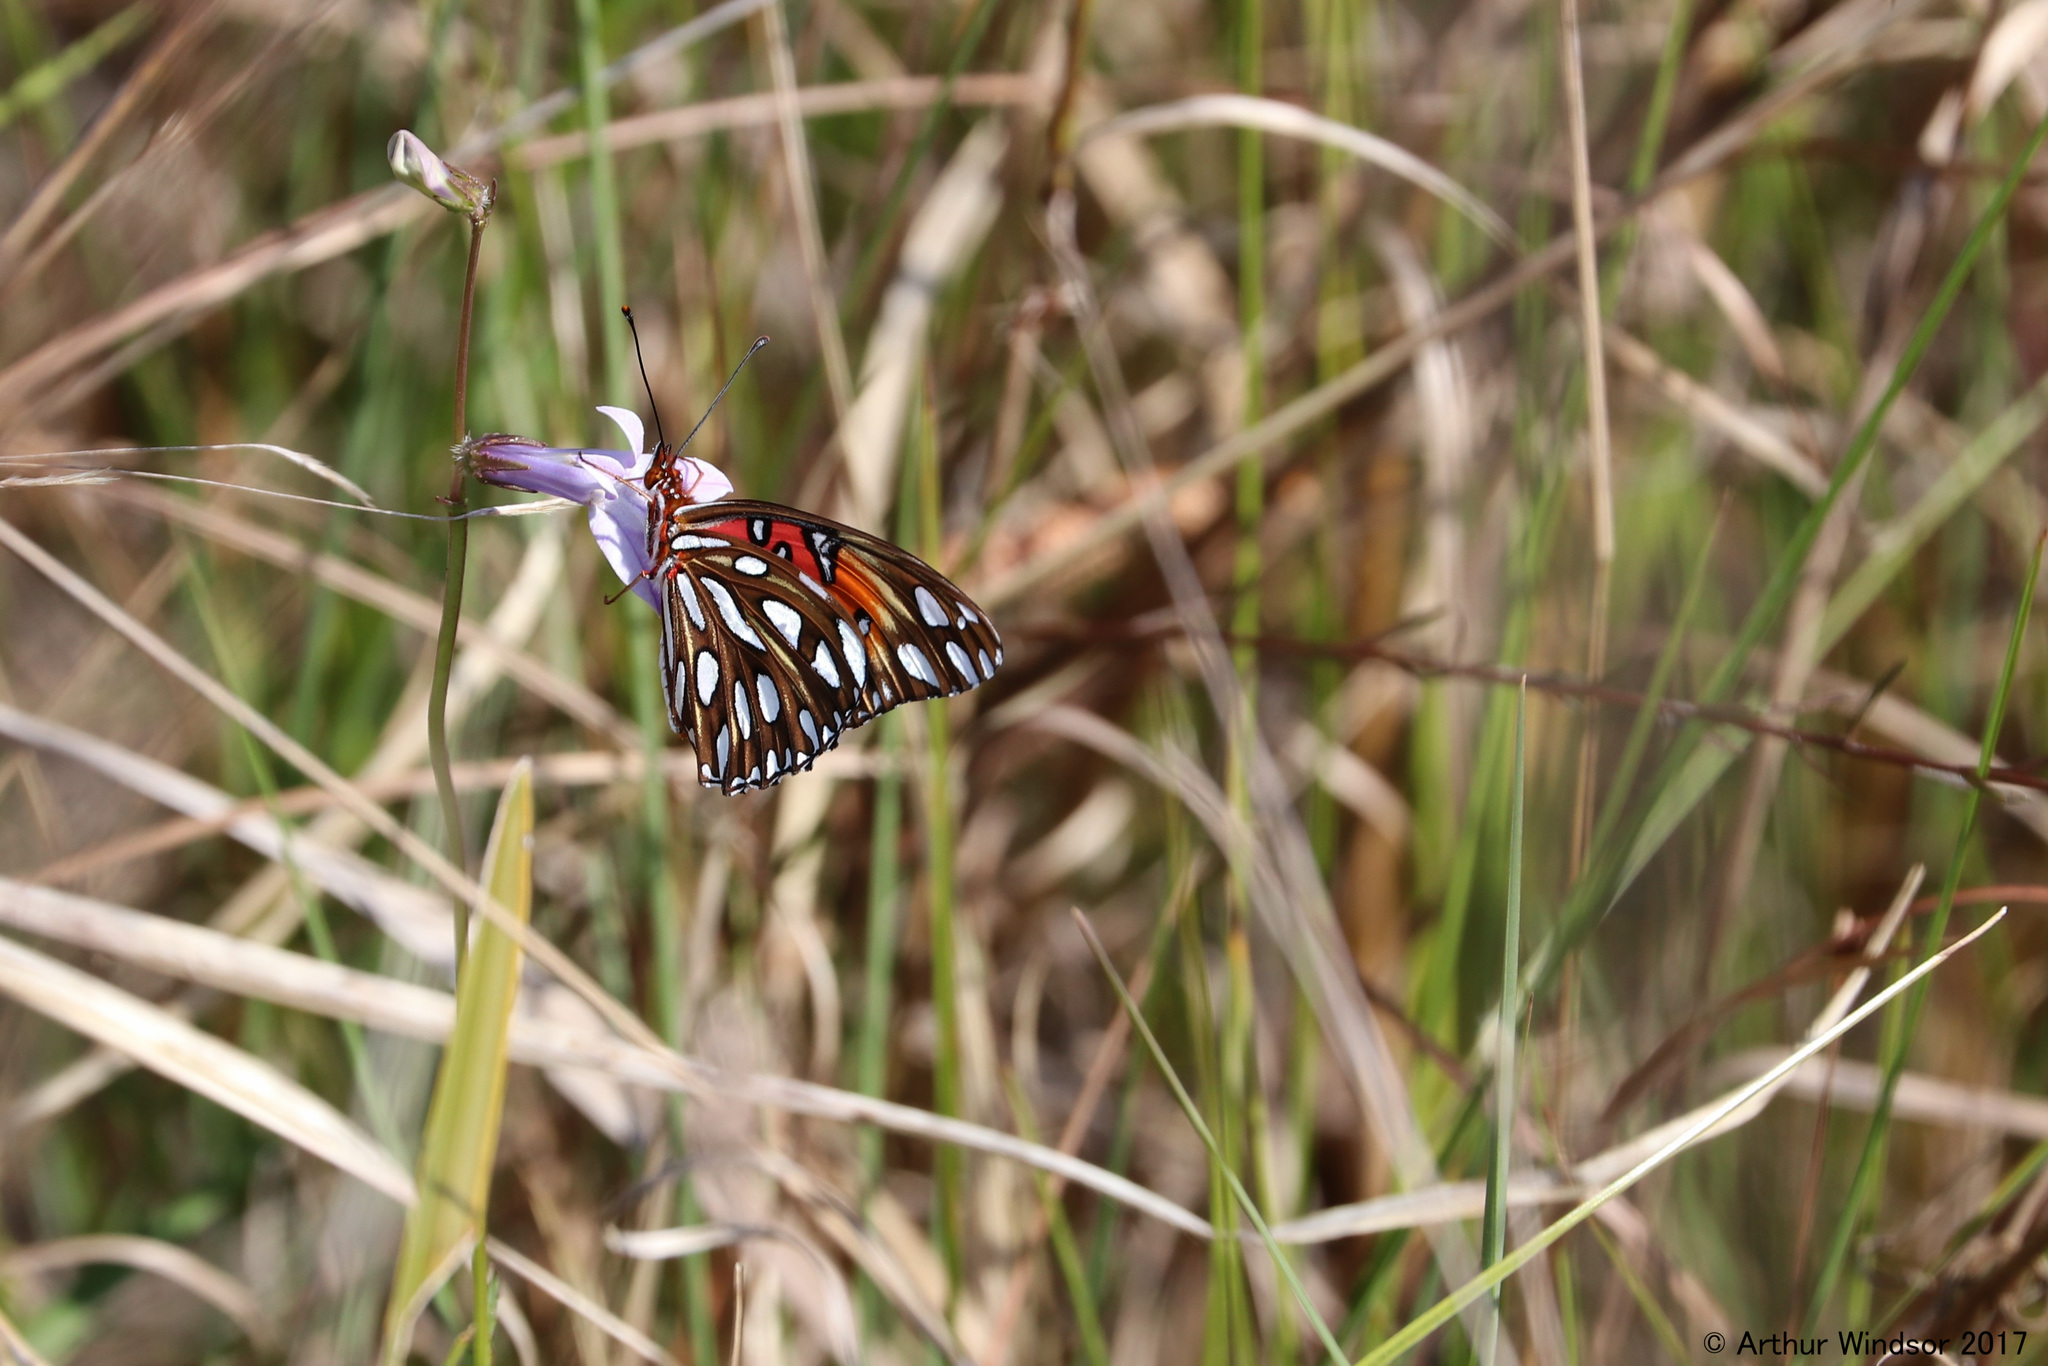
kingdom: Animalia
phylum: Arthropoda
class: Insecta
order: Lepidoptera
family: Nymphalidae
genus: Dione
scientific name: Dione vanillae
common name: Gulf fritillary
